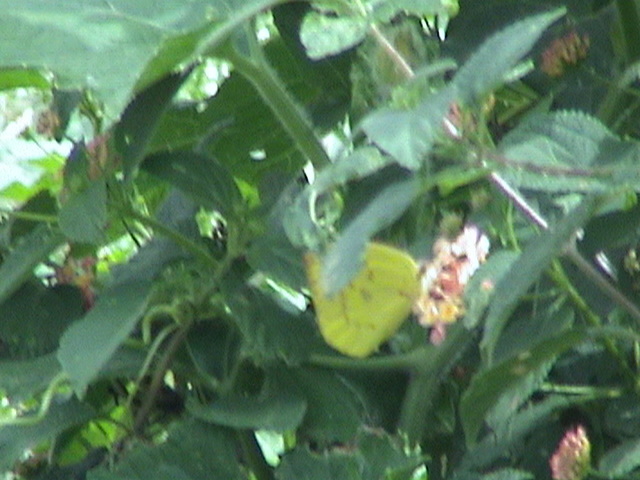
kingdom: Animalia
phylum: Arthropoda
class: Insecta
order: Lepidoptera
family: Pieridae
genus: Catopsilia
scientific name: Catopsilia pomona
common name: Common emigrant
